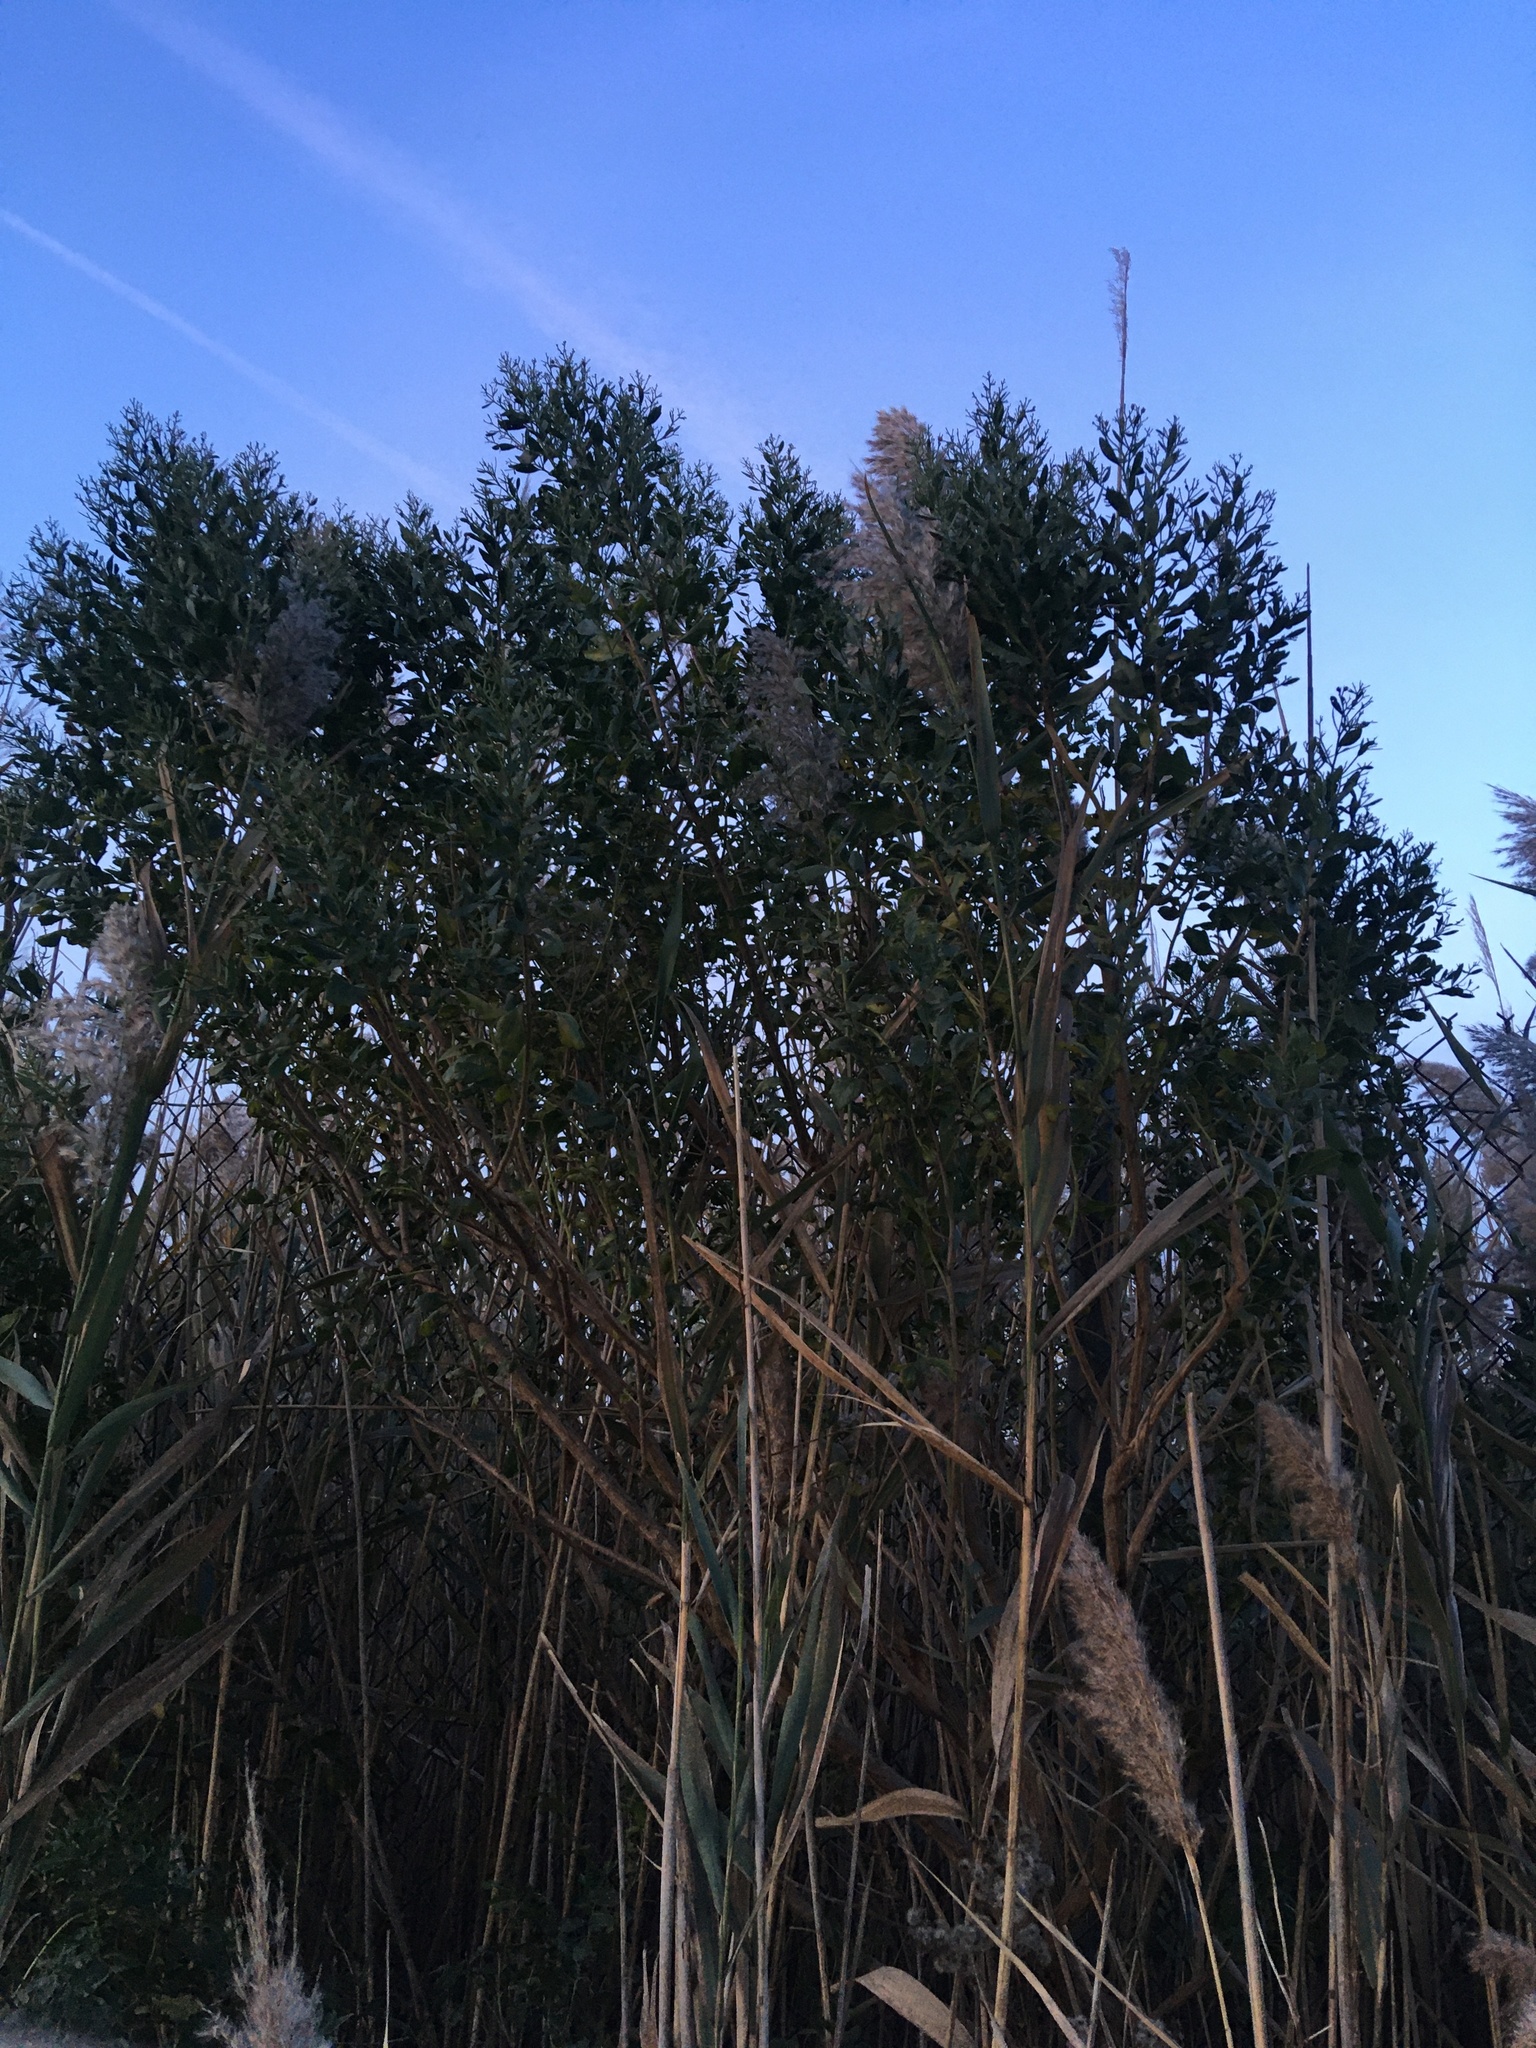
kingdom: Plantae
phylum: Tracheophyta
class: Magnoliopsida
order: Asterales
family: Asteraceae
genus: Baccharis
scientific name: Baccharis halimifolia
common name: Eastern baccharis
